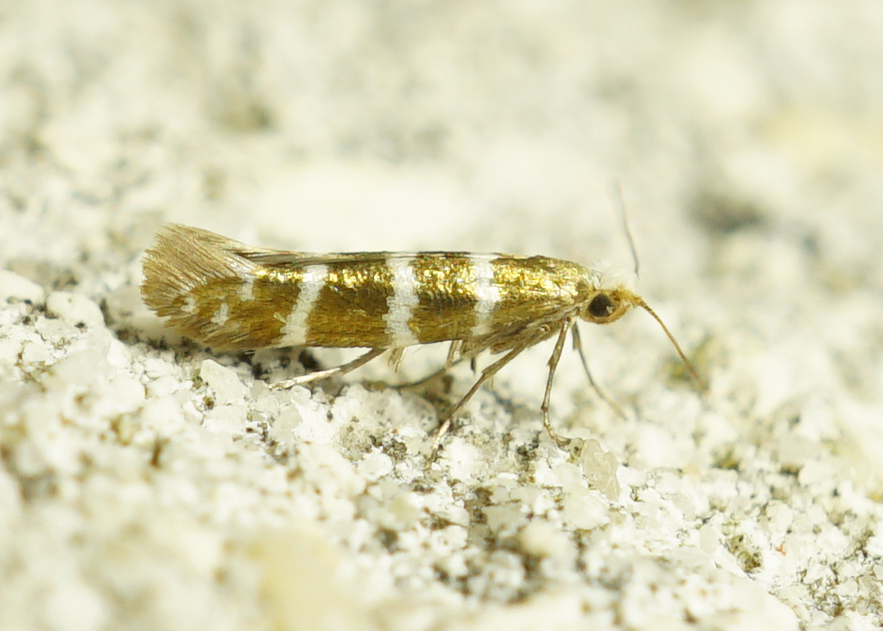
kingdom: Animalia
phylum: Arthropoda
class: Insecta
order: Lepidoptera
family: Argyresthiidae
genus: Argyresthia
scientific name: Argyresthia trifasciata
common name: Triple-barred argent
